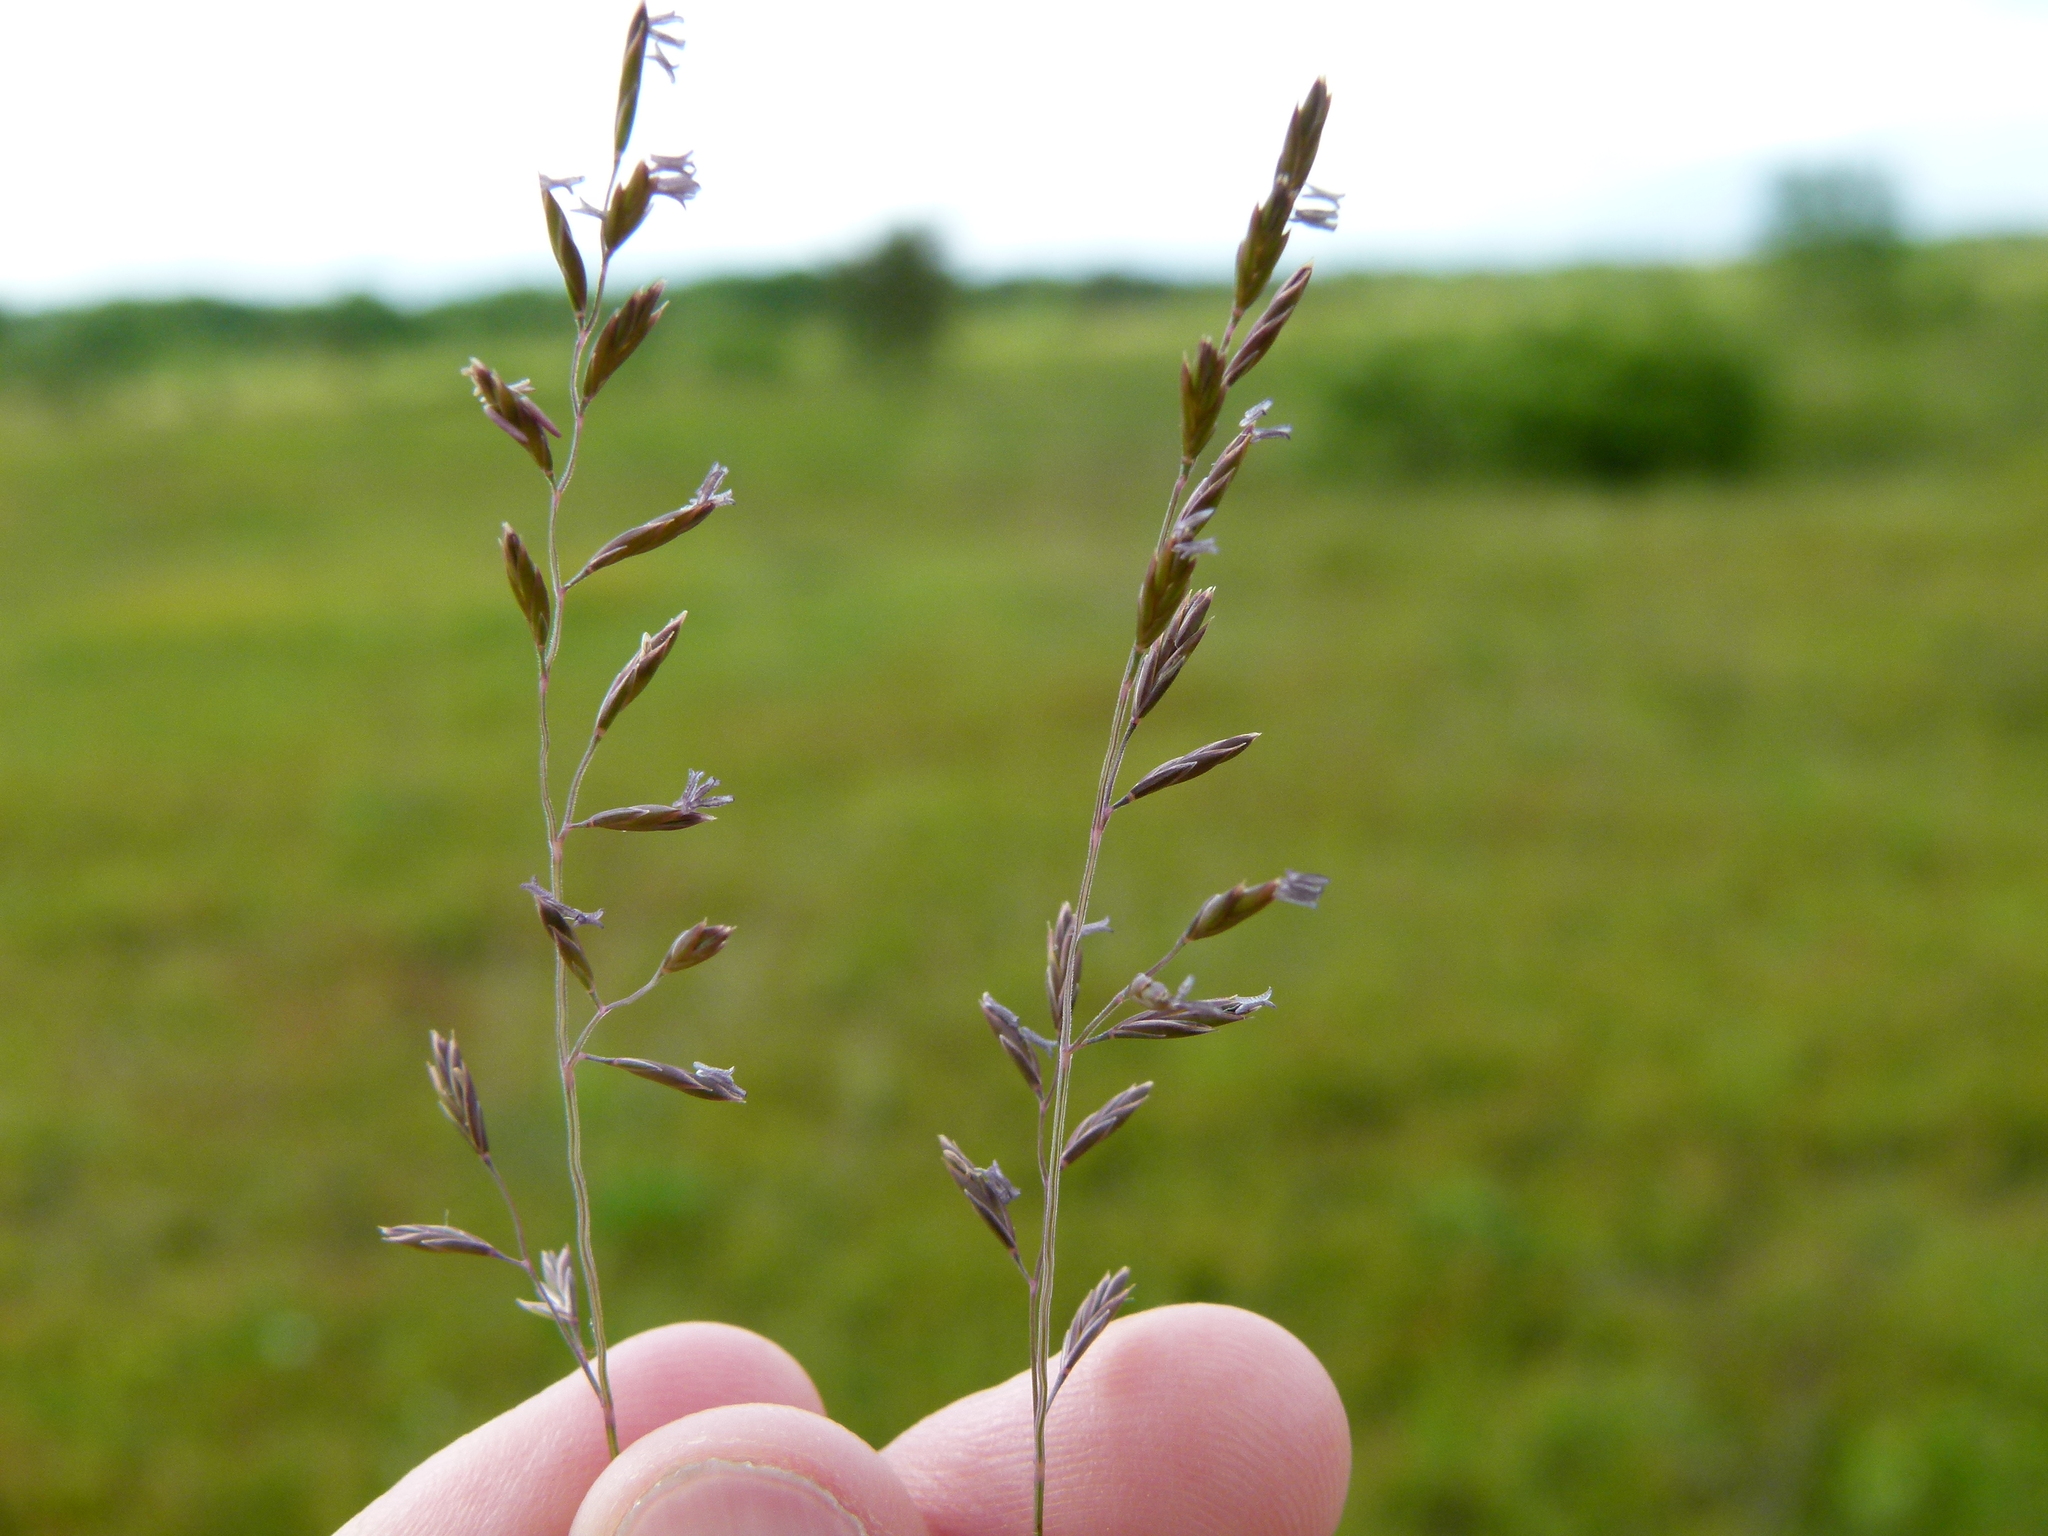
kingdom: Plantae
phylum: Tracheophyta
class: Liliopsida
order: Poales
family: Poaceae
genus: Festuca
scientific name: Festuca
